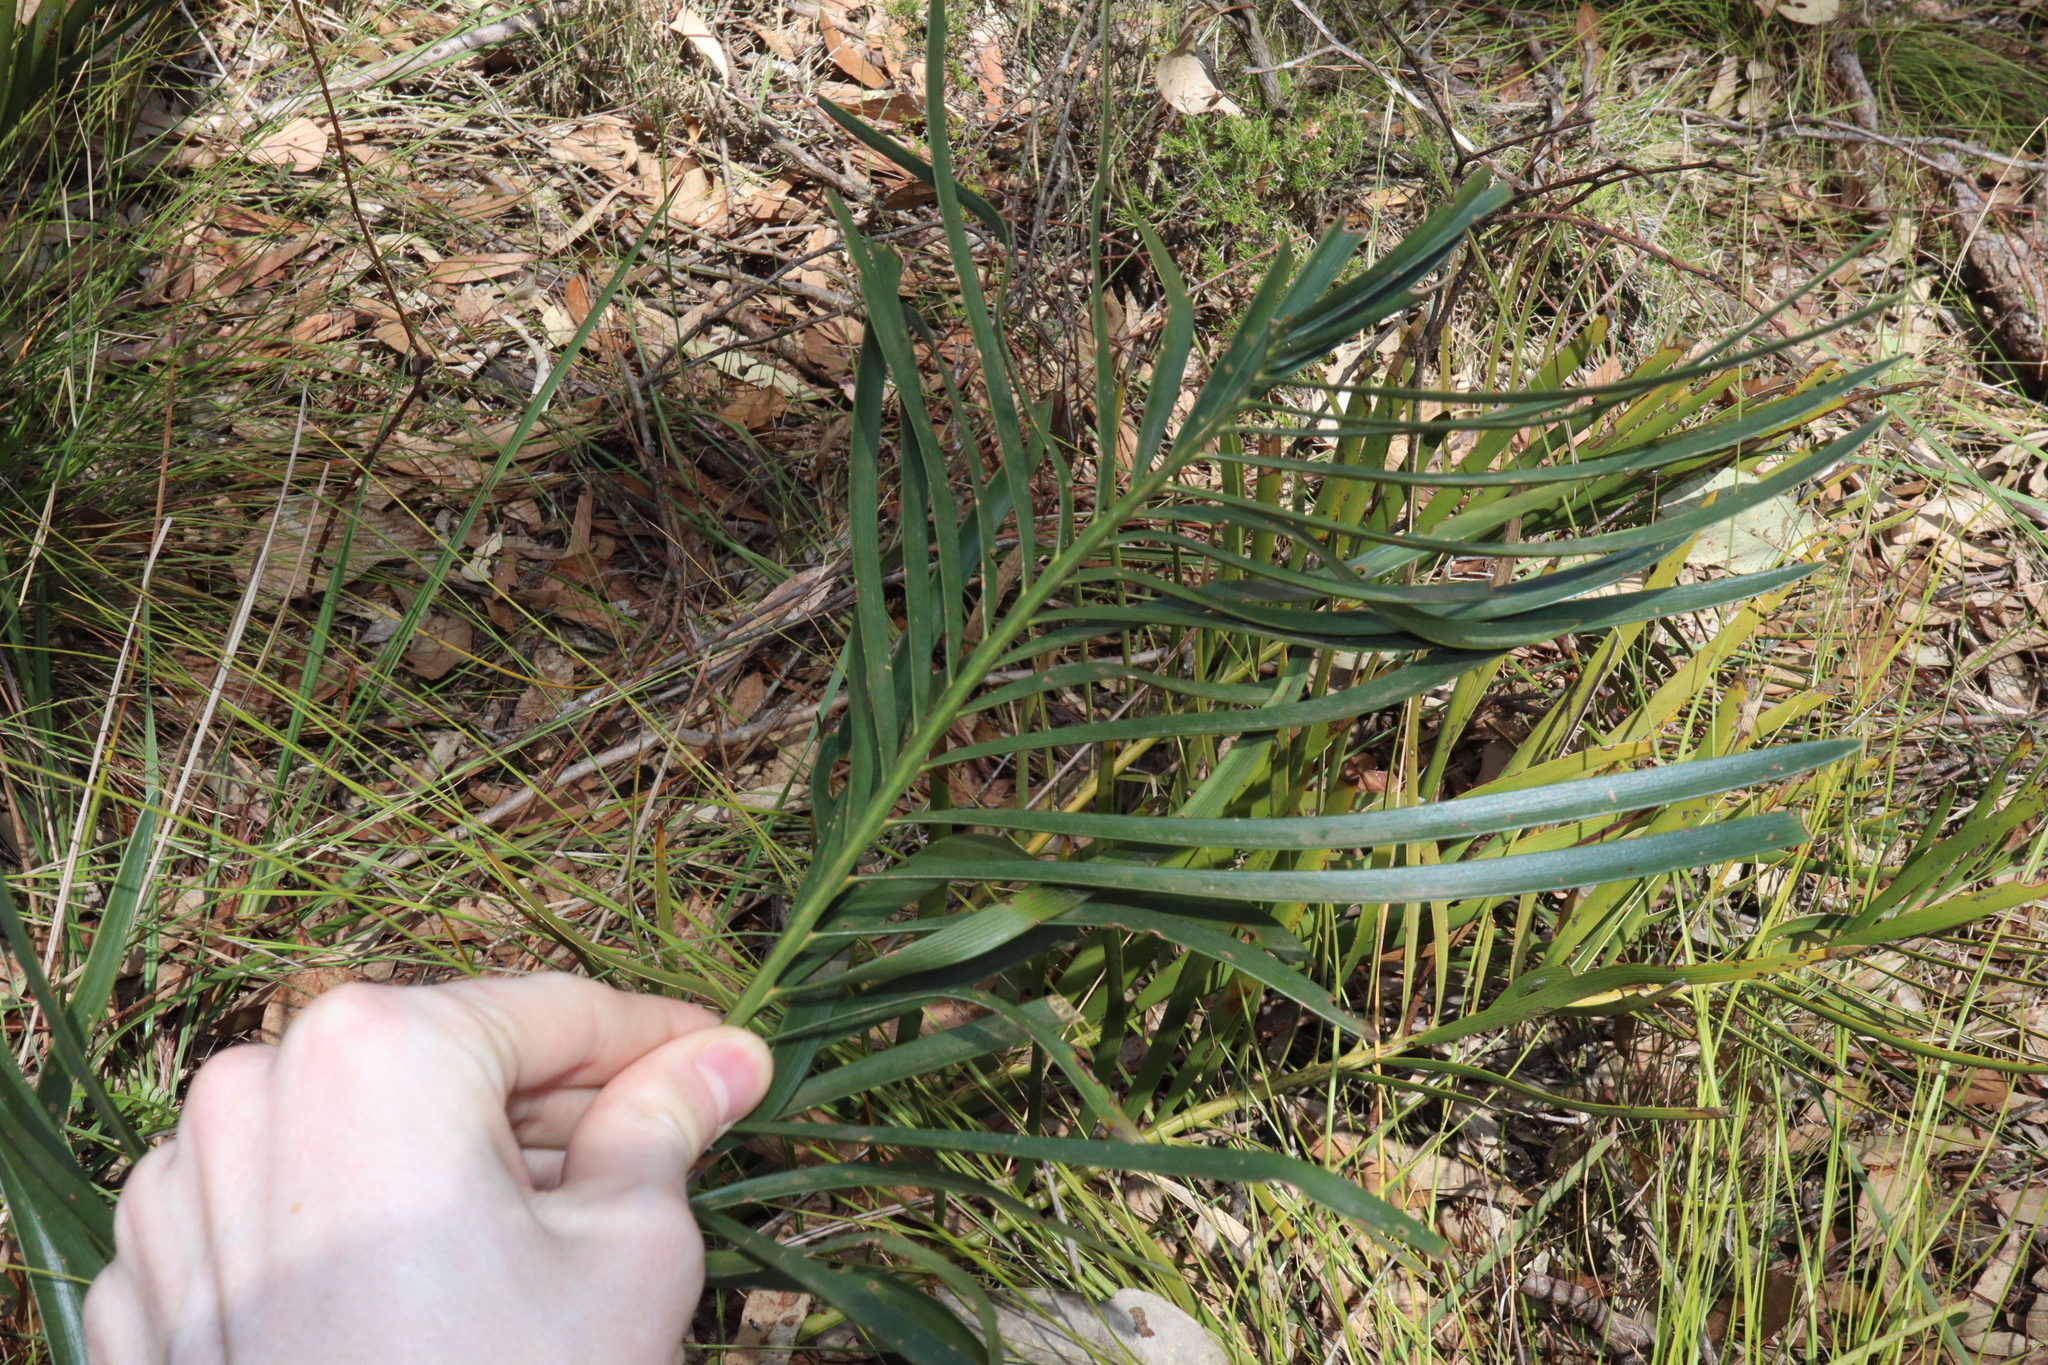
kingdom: Plantae
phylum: Tracheophyta
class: Cycadopsida
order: Cycadales
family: Zamiaceae
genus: Macrozamia
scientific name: Macrozamia spiralis
